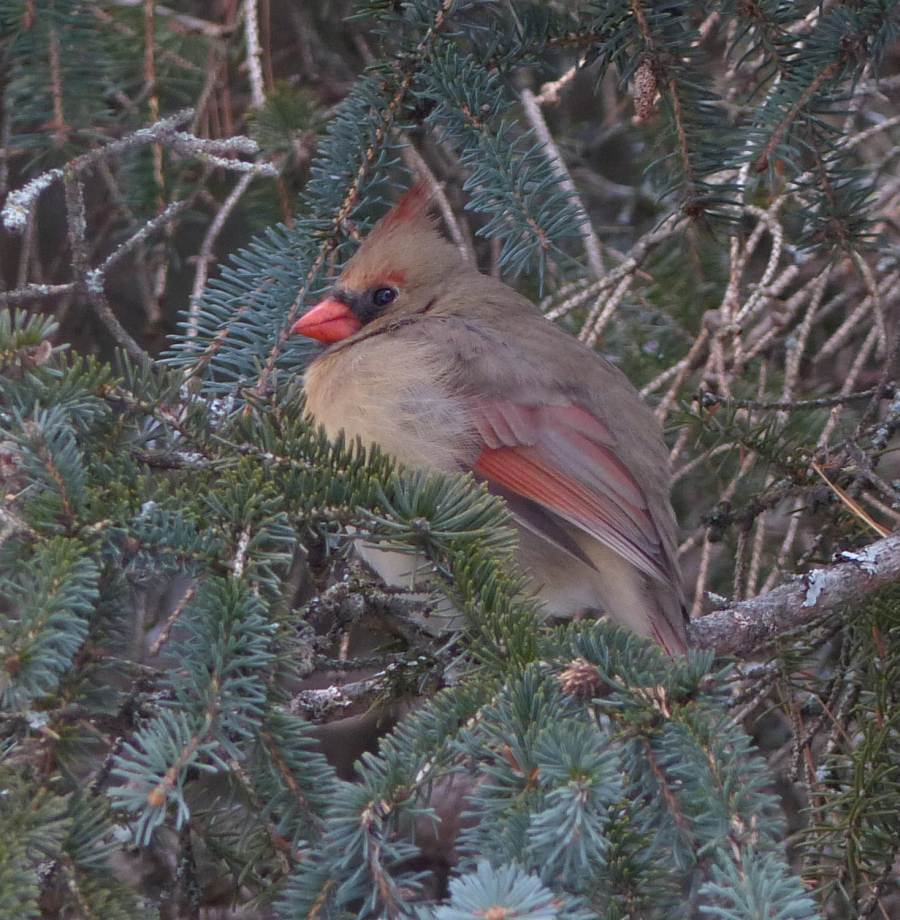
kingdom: Animalia
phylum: Chordata
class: Aves
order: Passeriformes
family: Cardinalidae
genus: Cardinalis
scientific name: Cardinalis cardinalis
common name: Northern cardinal
